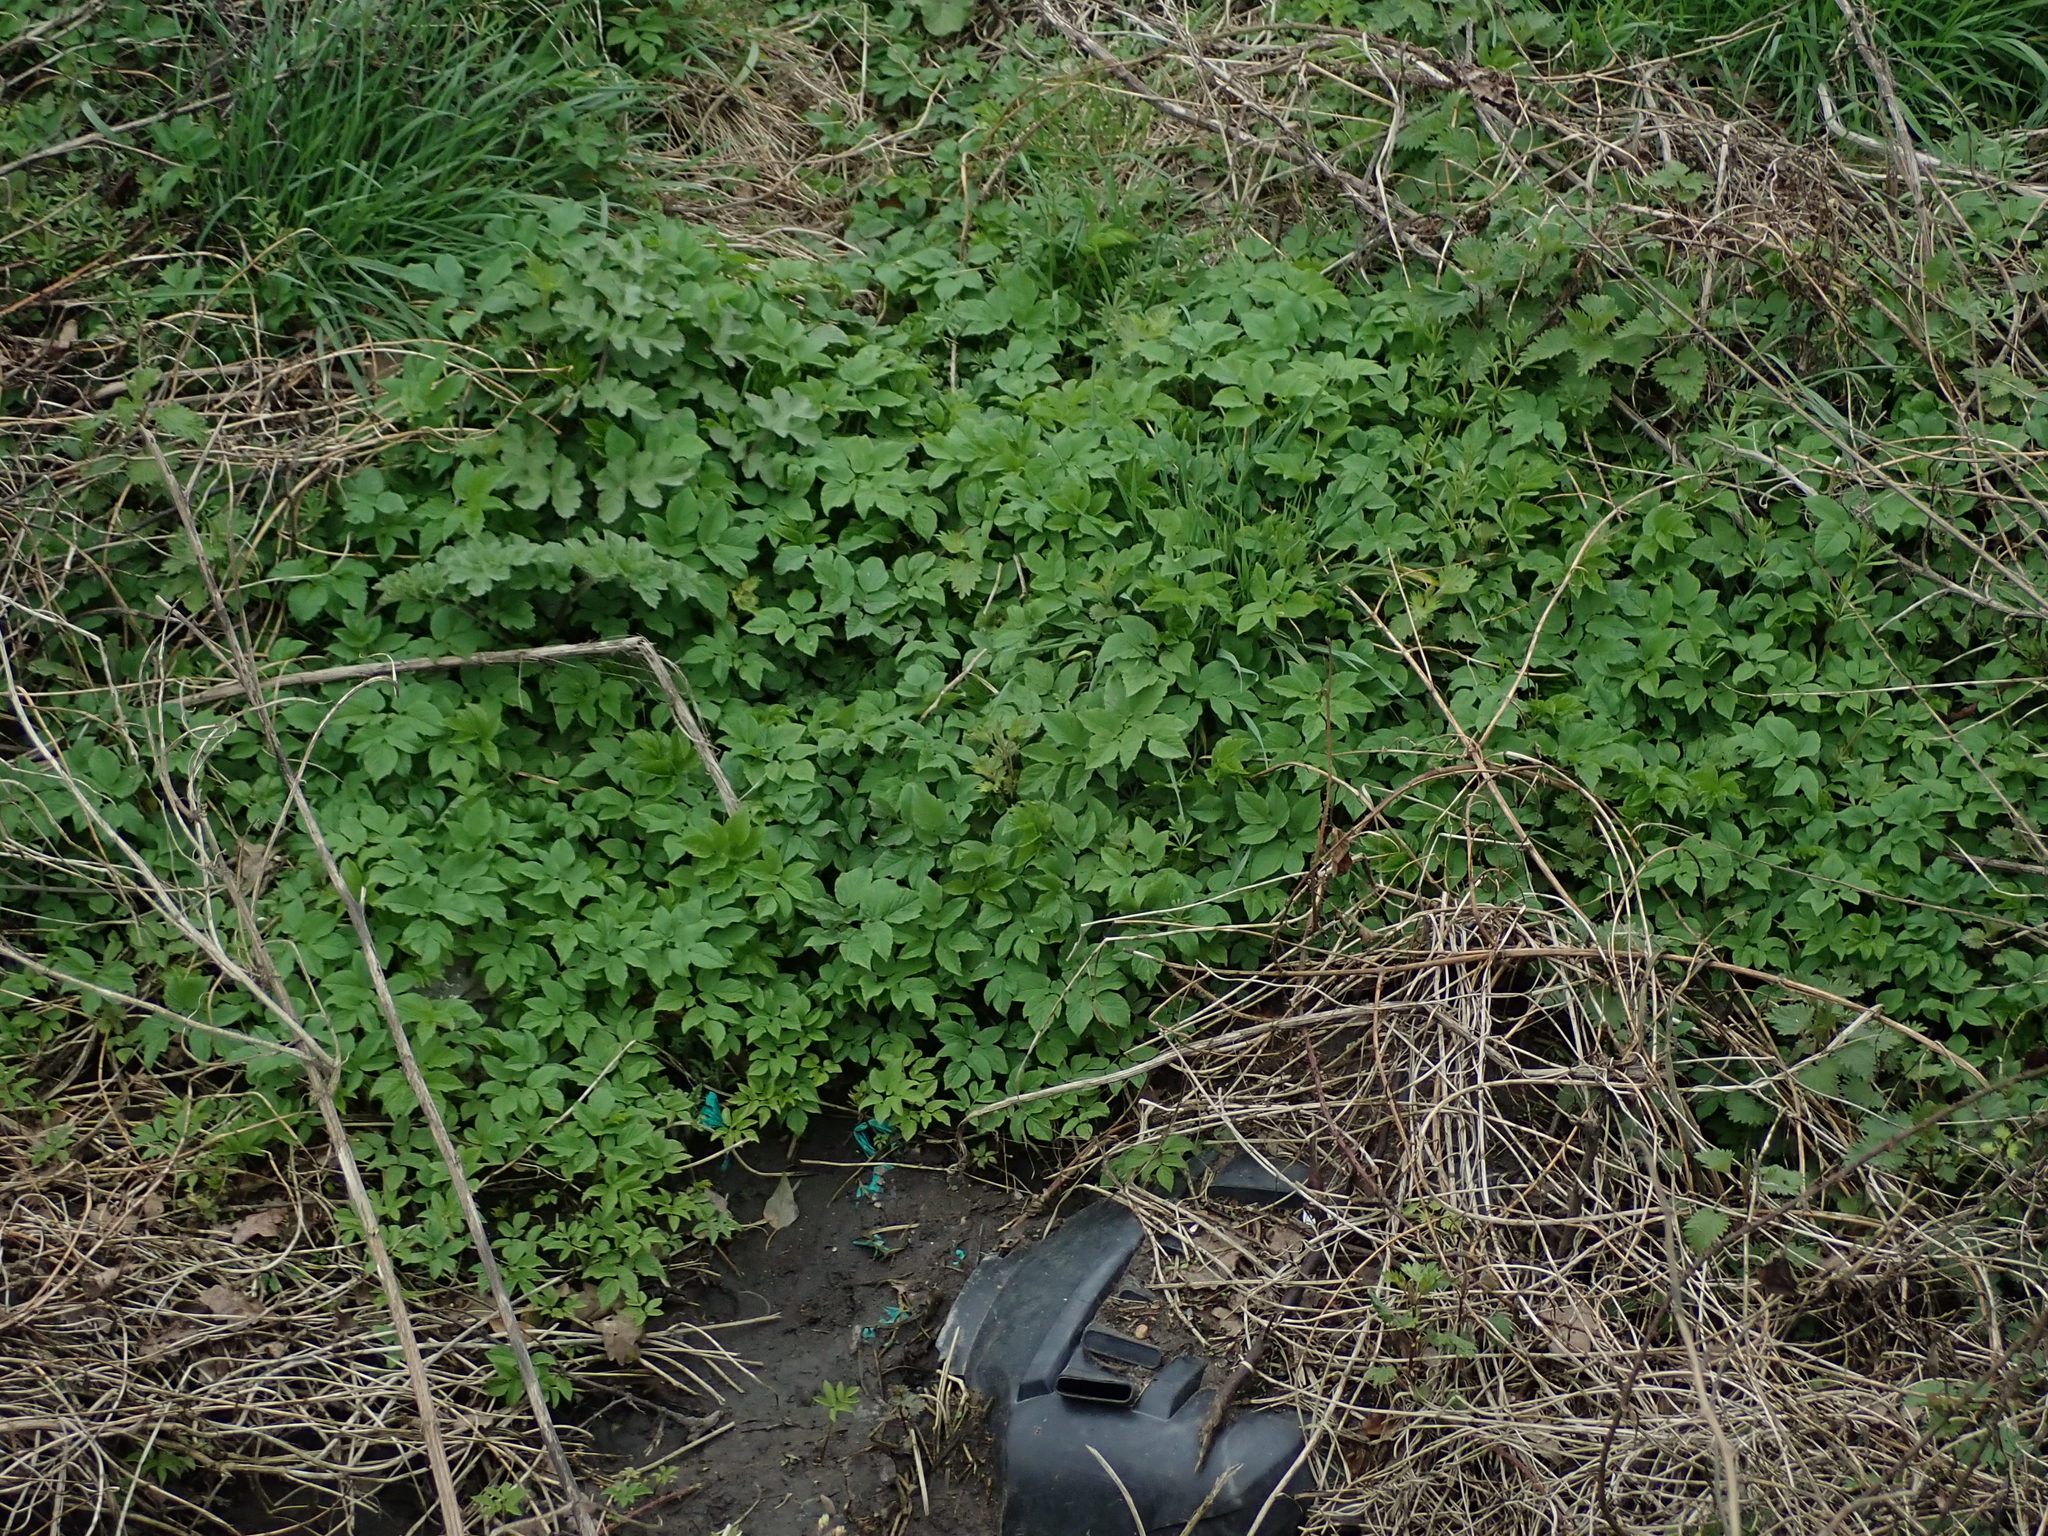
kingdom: Plantae
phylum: Tracheophyta
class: Magnoliopsida
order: Apiales
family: Apiaceae
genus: Aegopodium
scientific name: Aegopodium podagraria
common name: Ground-elder
